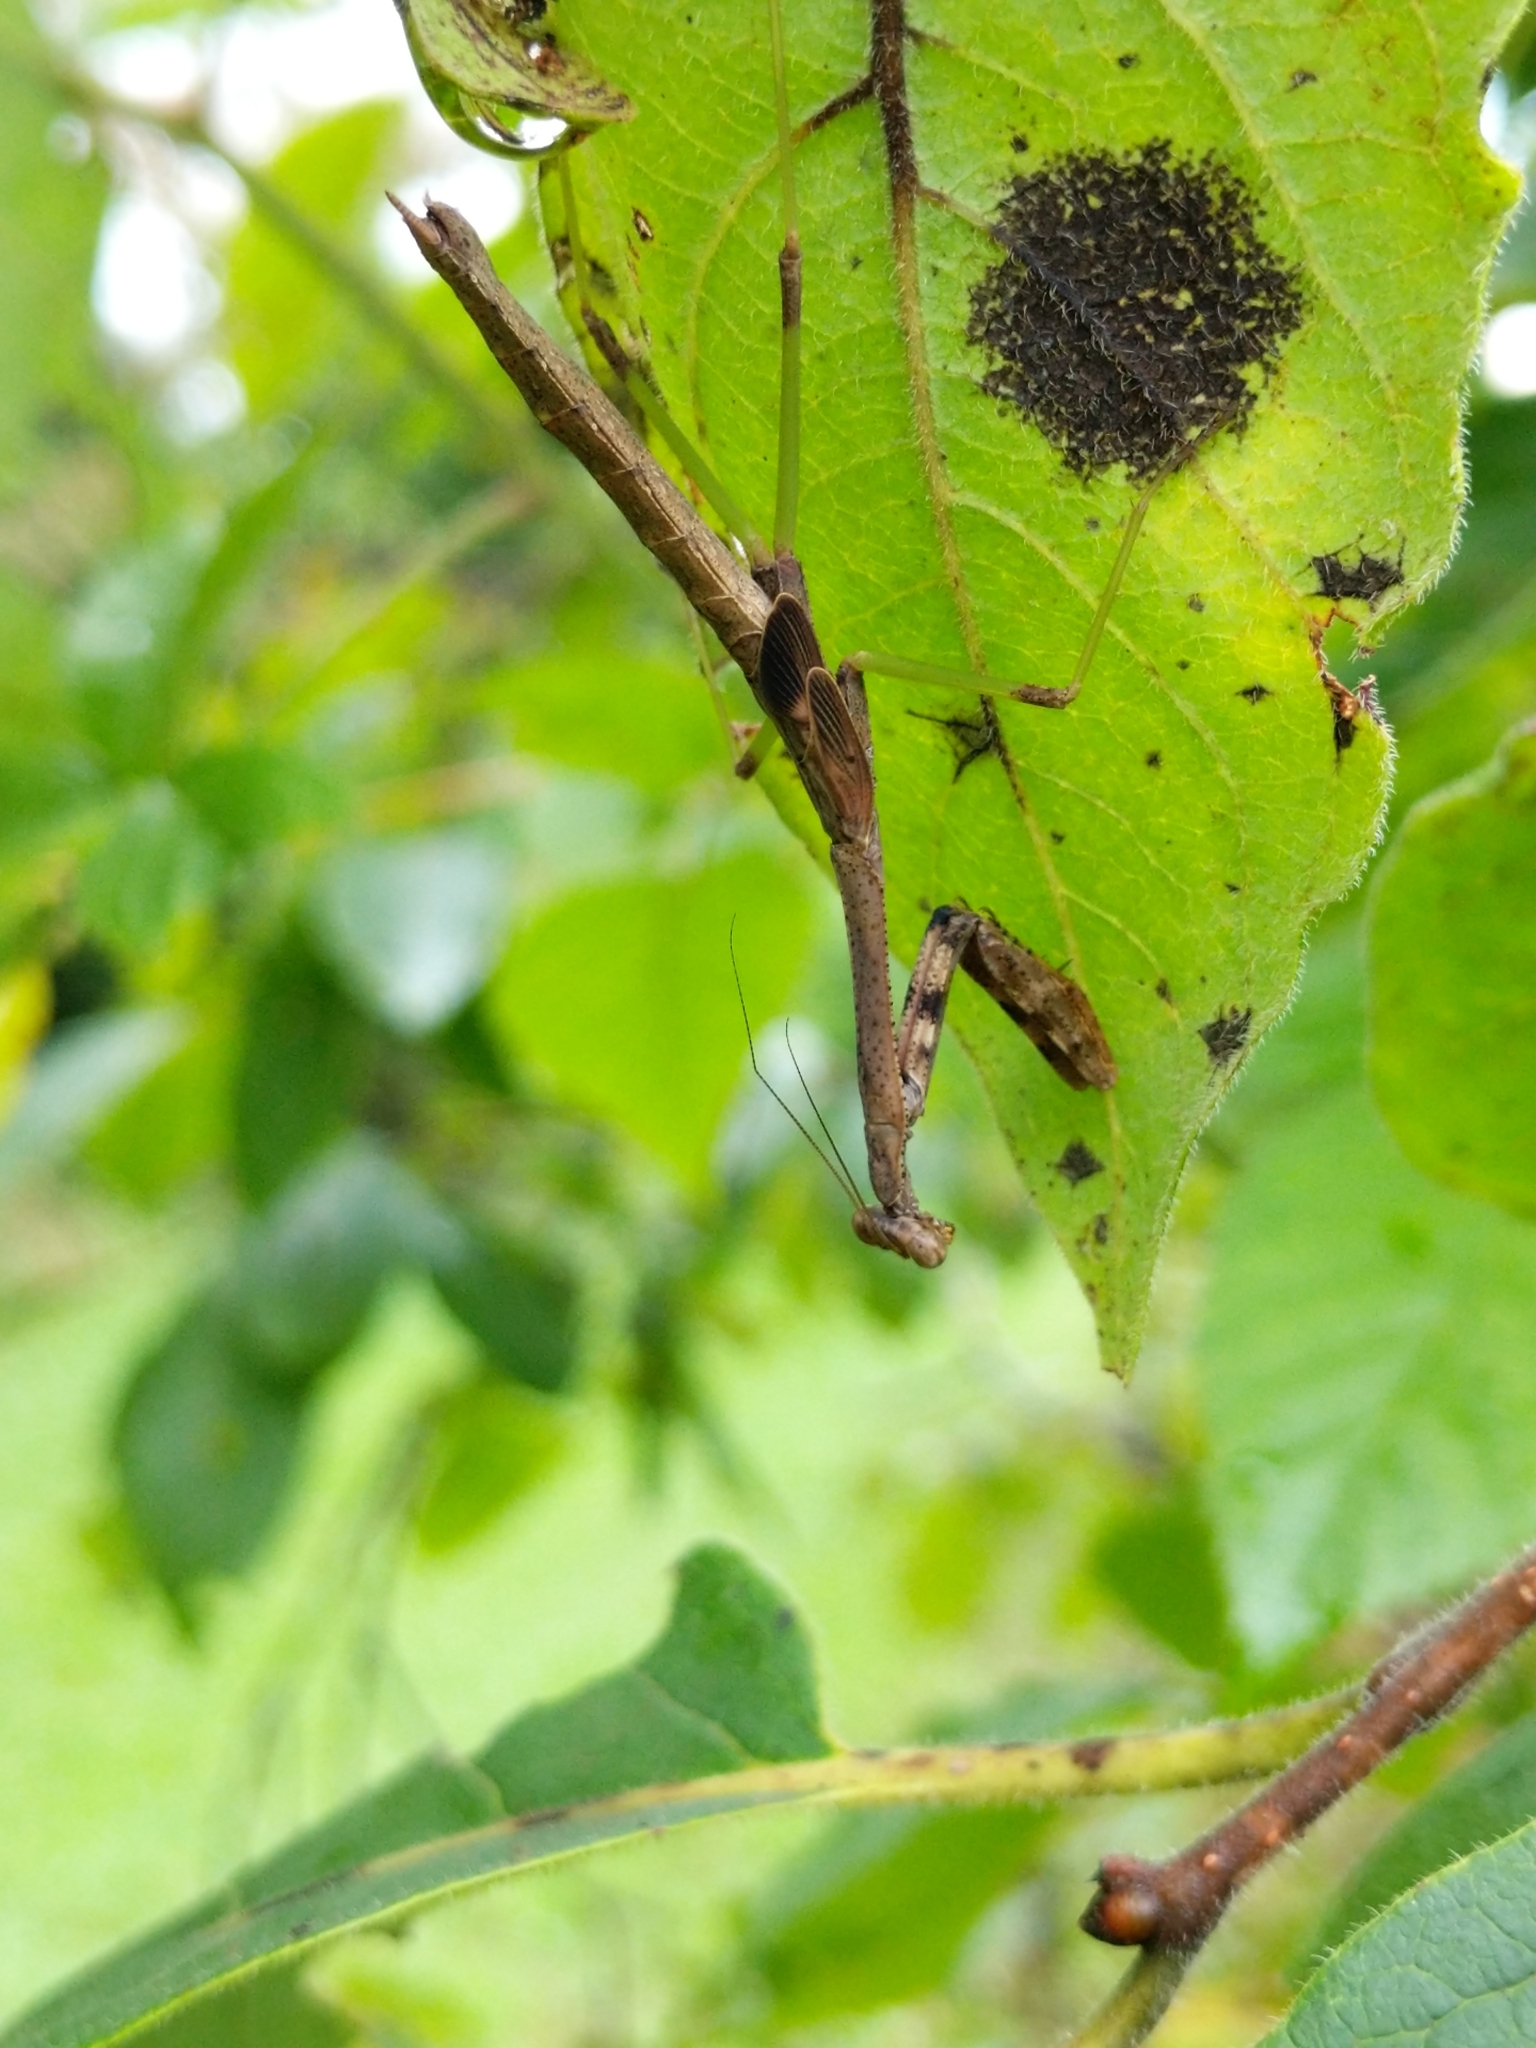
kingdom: Animalia
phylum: Arthropoda
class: Insecta
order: Mantodea
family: Mantidae
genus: Stagmomantis
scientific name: Stagmomantis carolina
